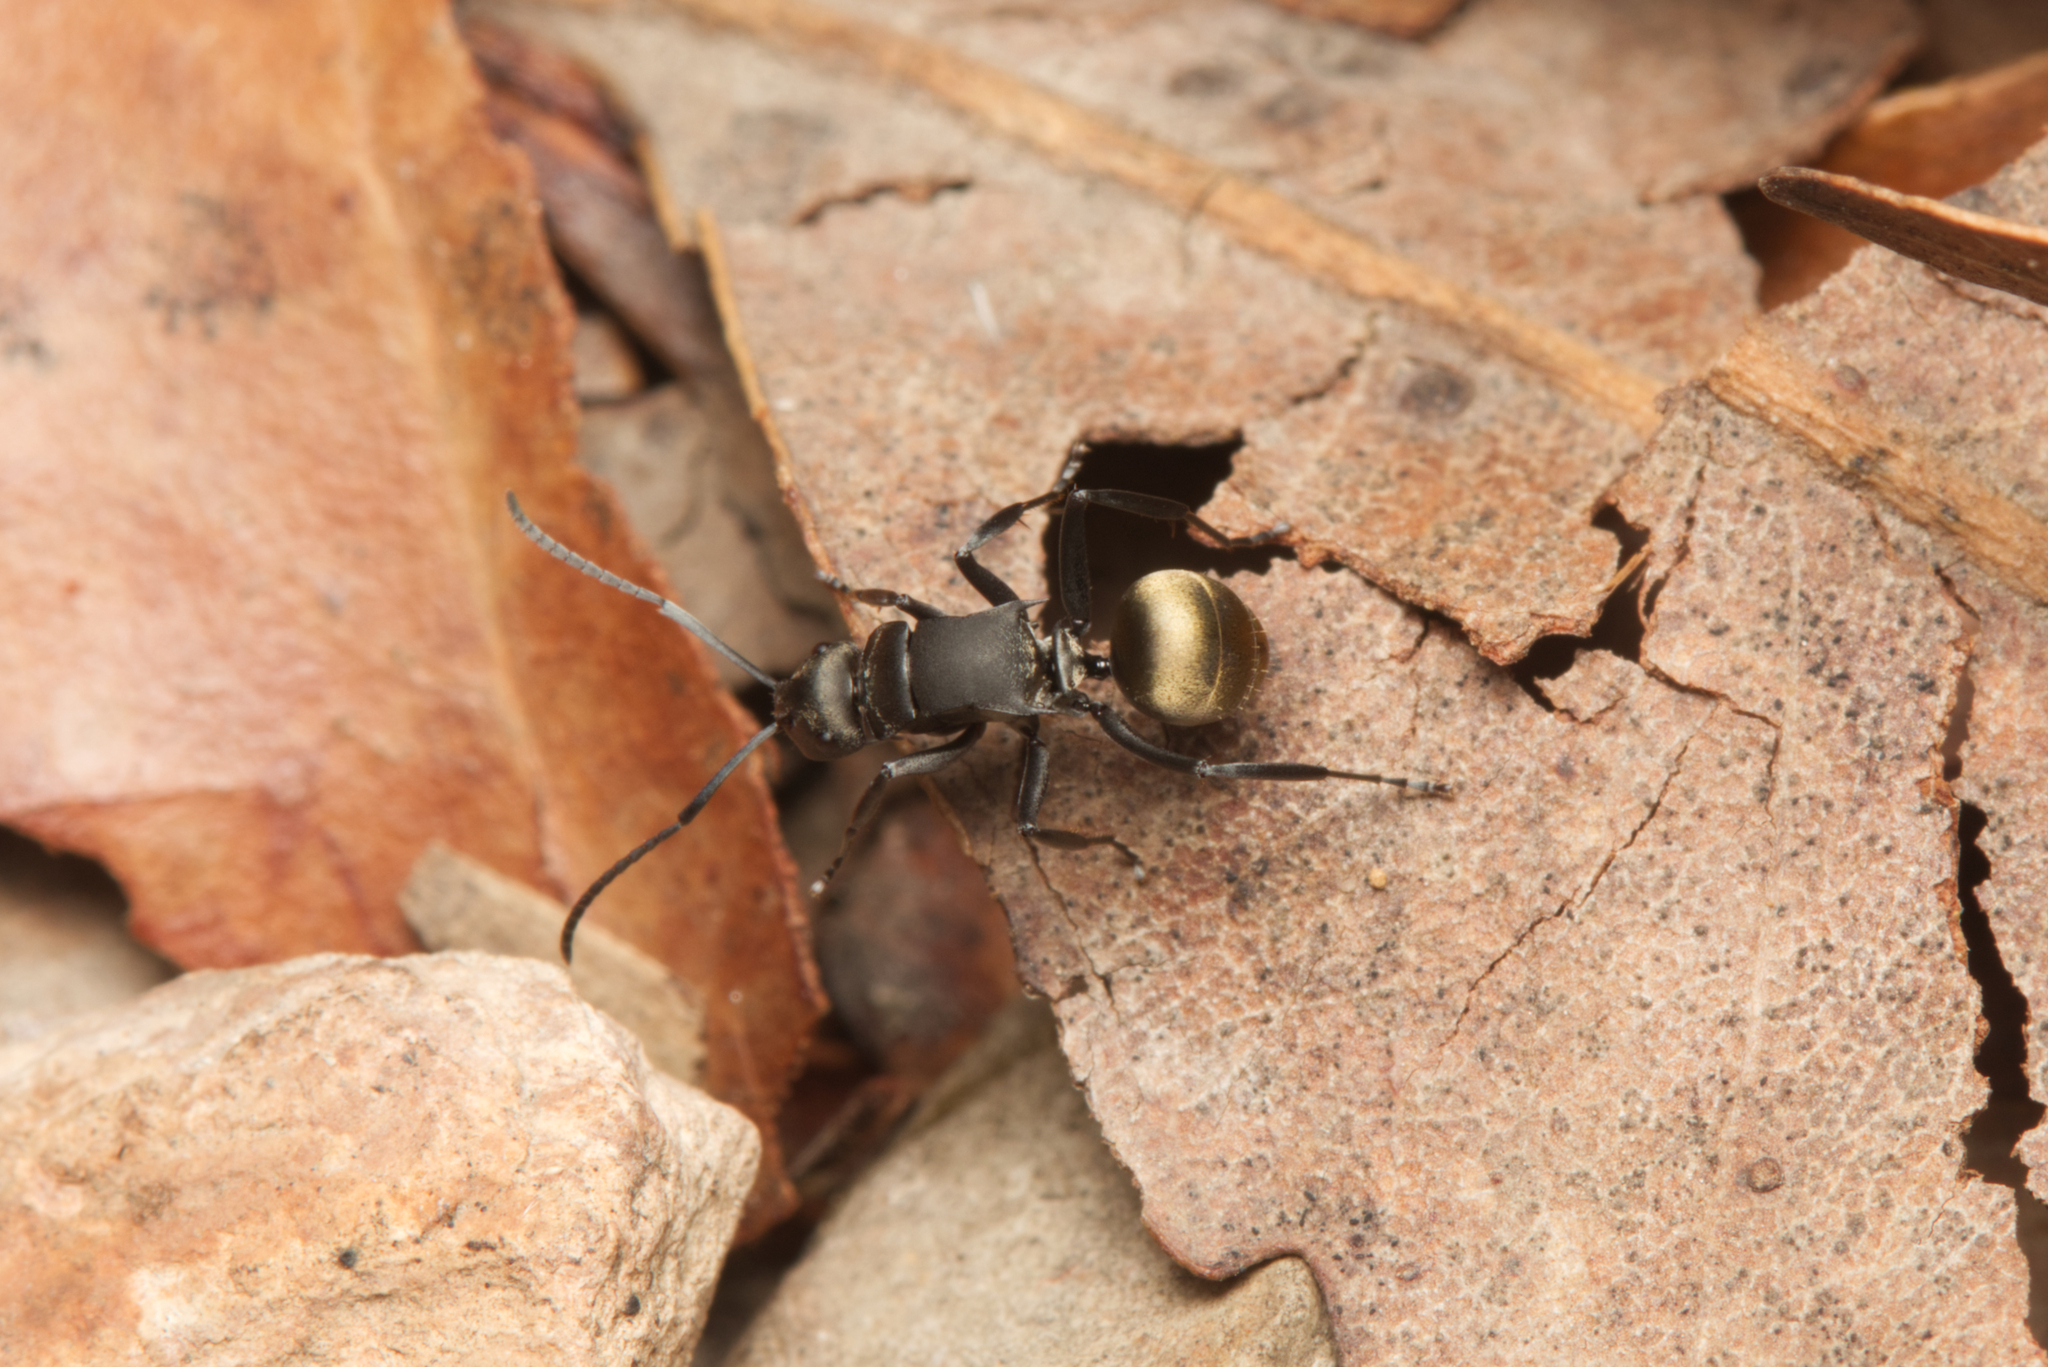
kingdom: Animalia
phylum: Arthropoda
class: Insecta
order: Hymenoptera
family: Formicidae
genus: Polyrhachis
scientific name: Polyrhachis tubifera
